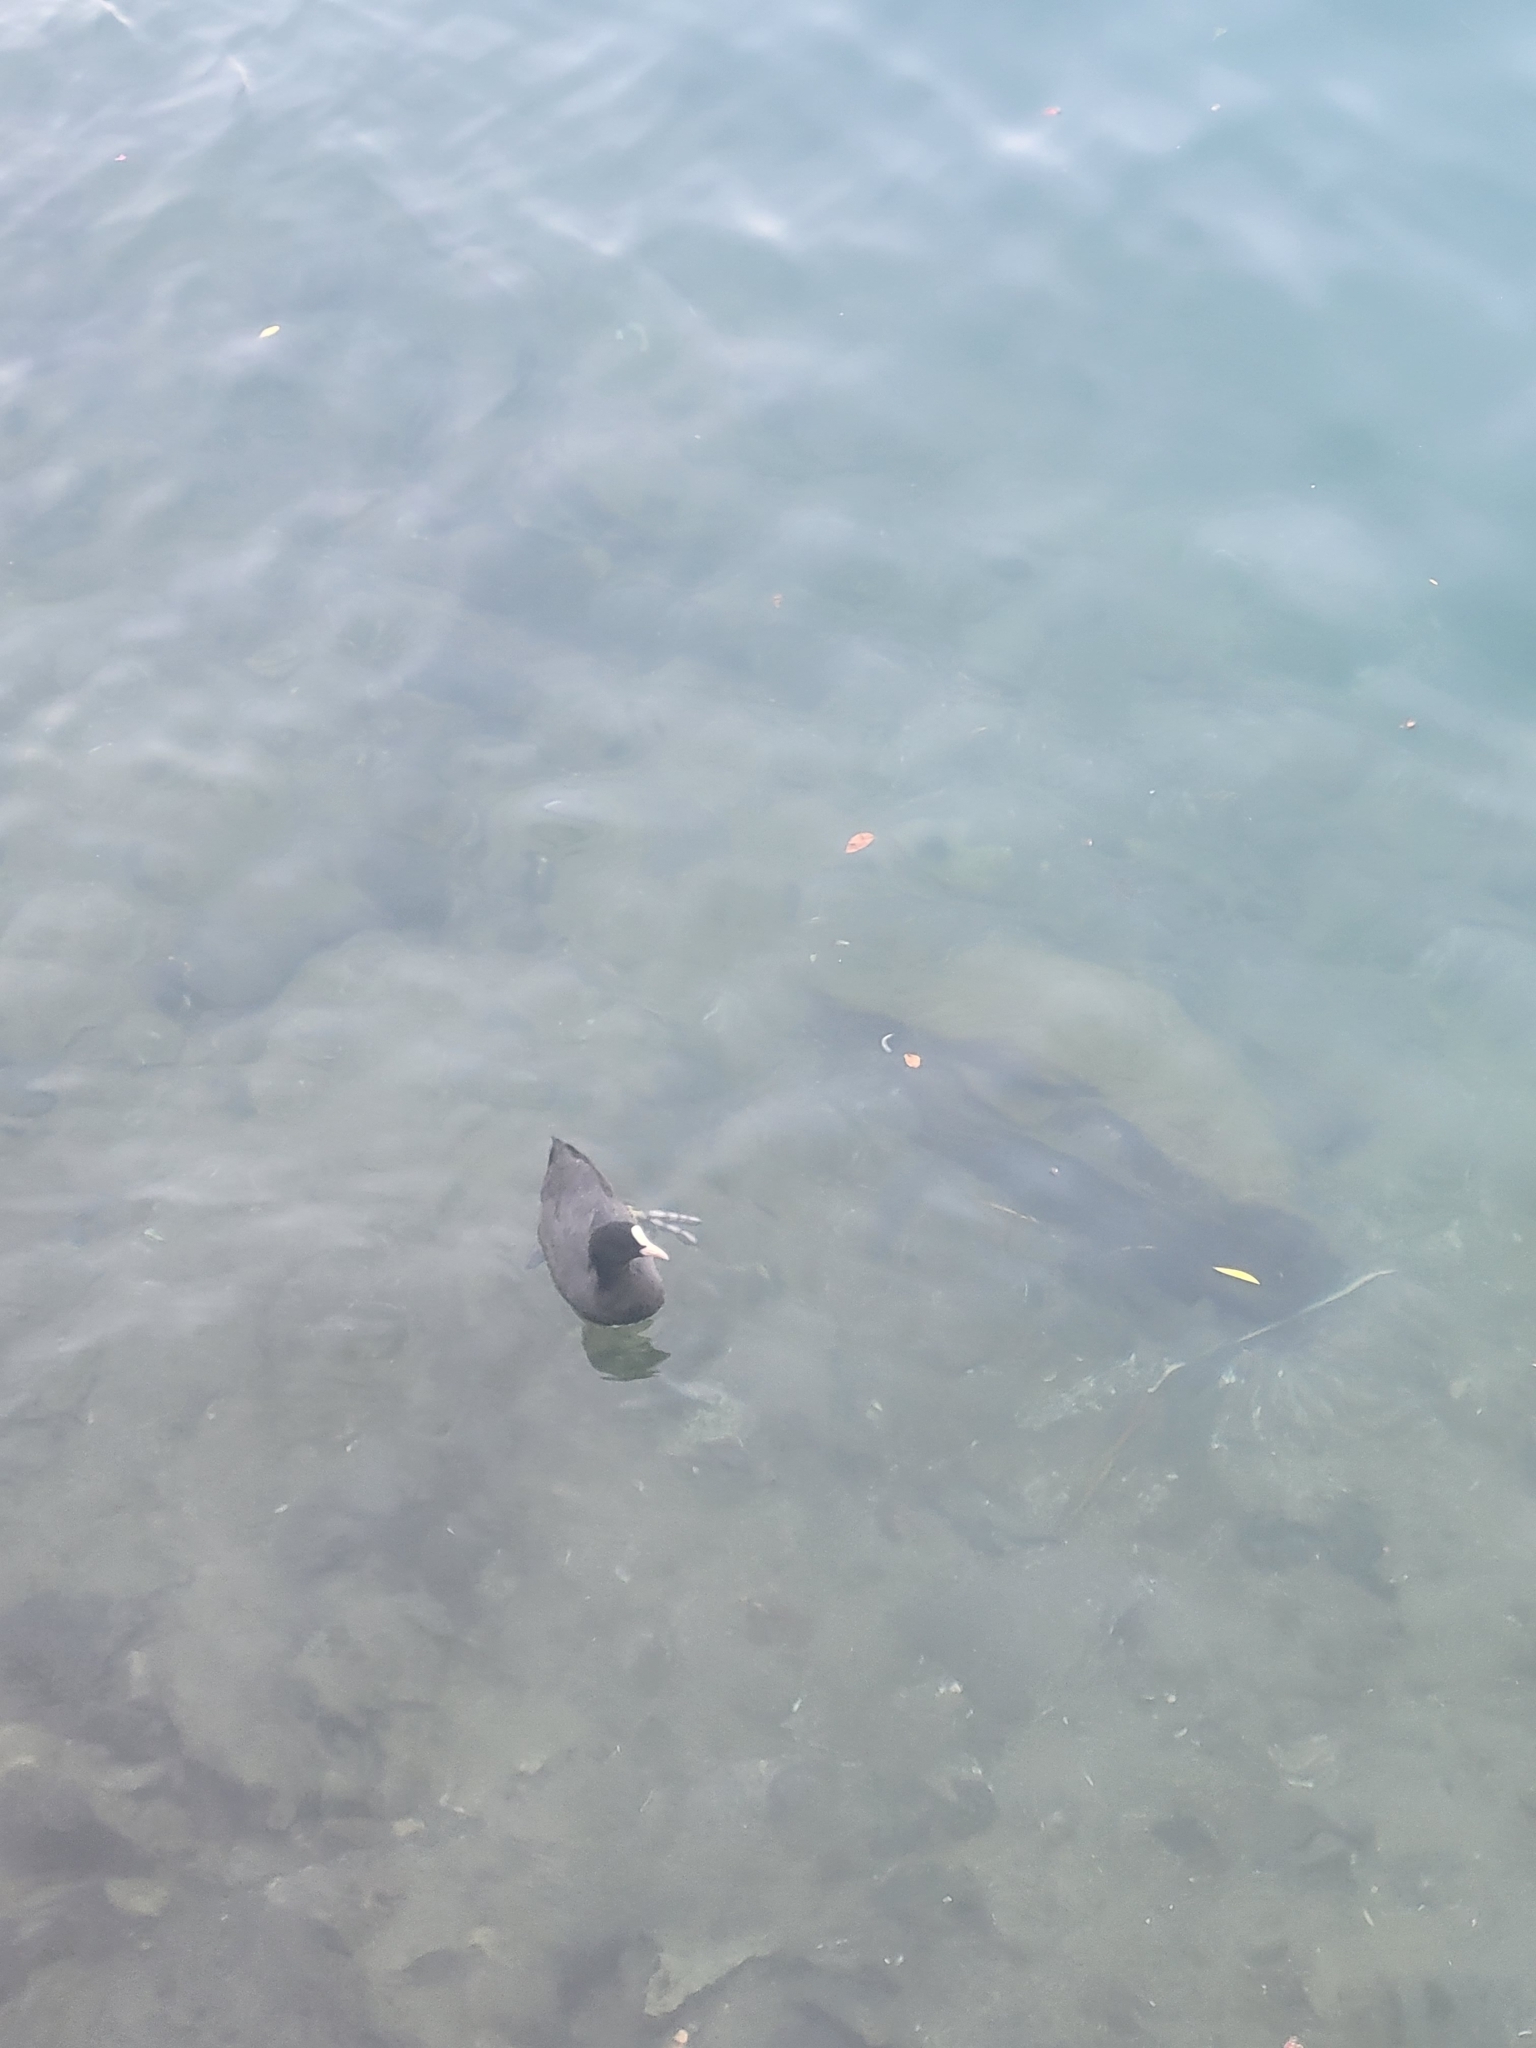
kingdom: Animalia
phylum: Chordata
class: Aves
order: Gruiformes
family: Rallidae
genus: Fulica
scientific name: Fulica atra
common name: Eurasian coot
